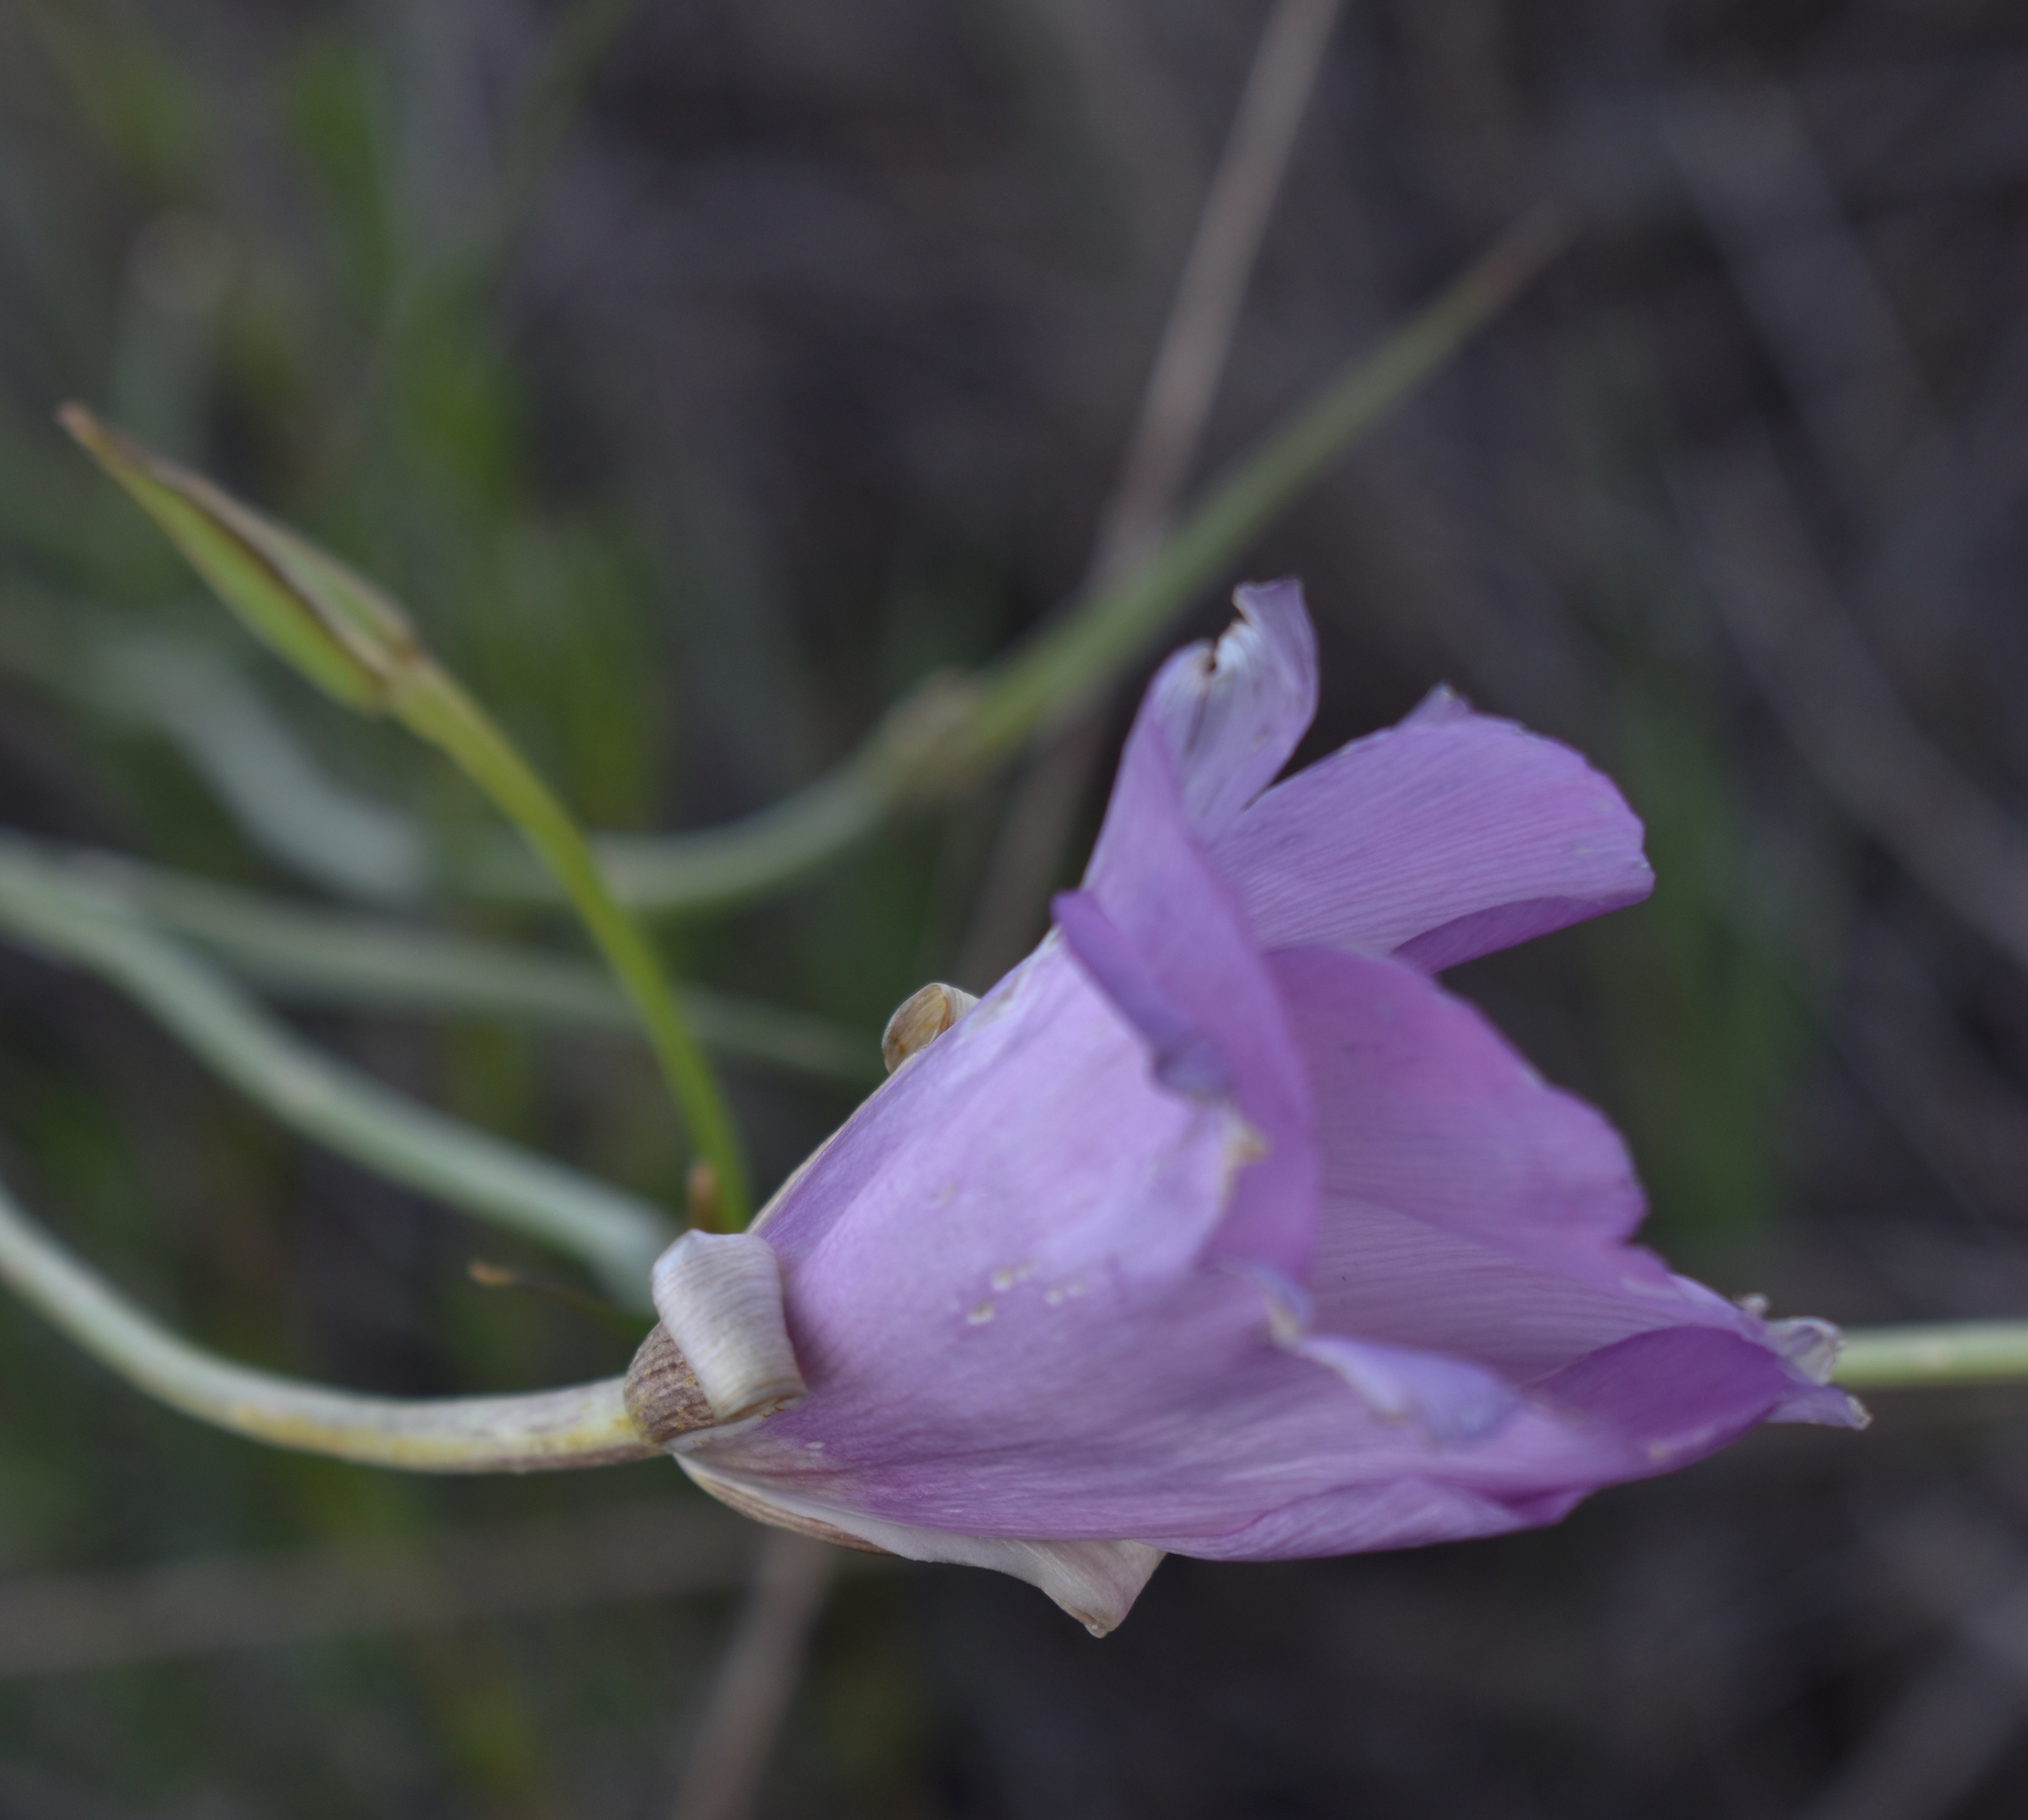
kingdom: Plantae
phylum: Tracheophyta
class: Liliopsida
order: Liliales
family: Liliaceae
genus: Calochortus
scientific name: Calochortus splendens
